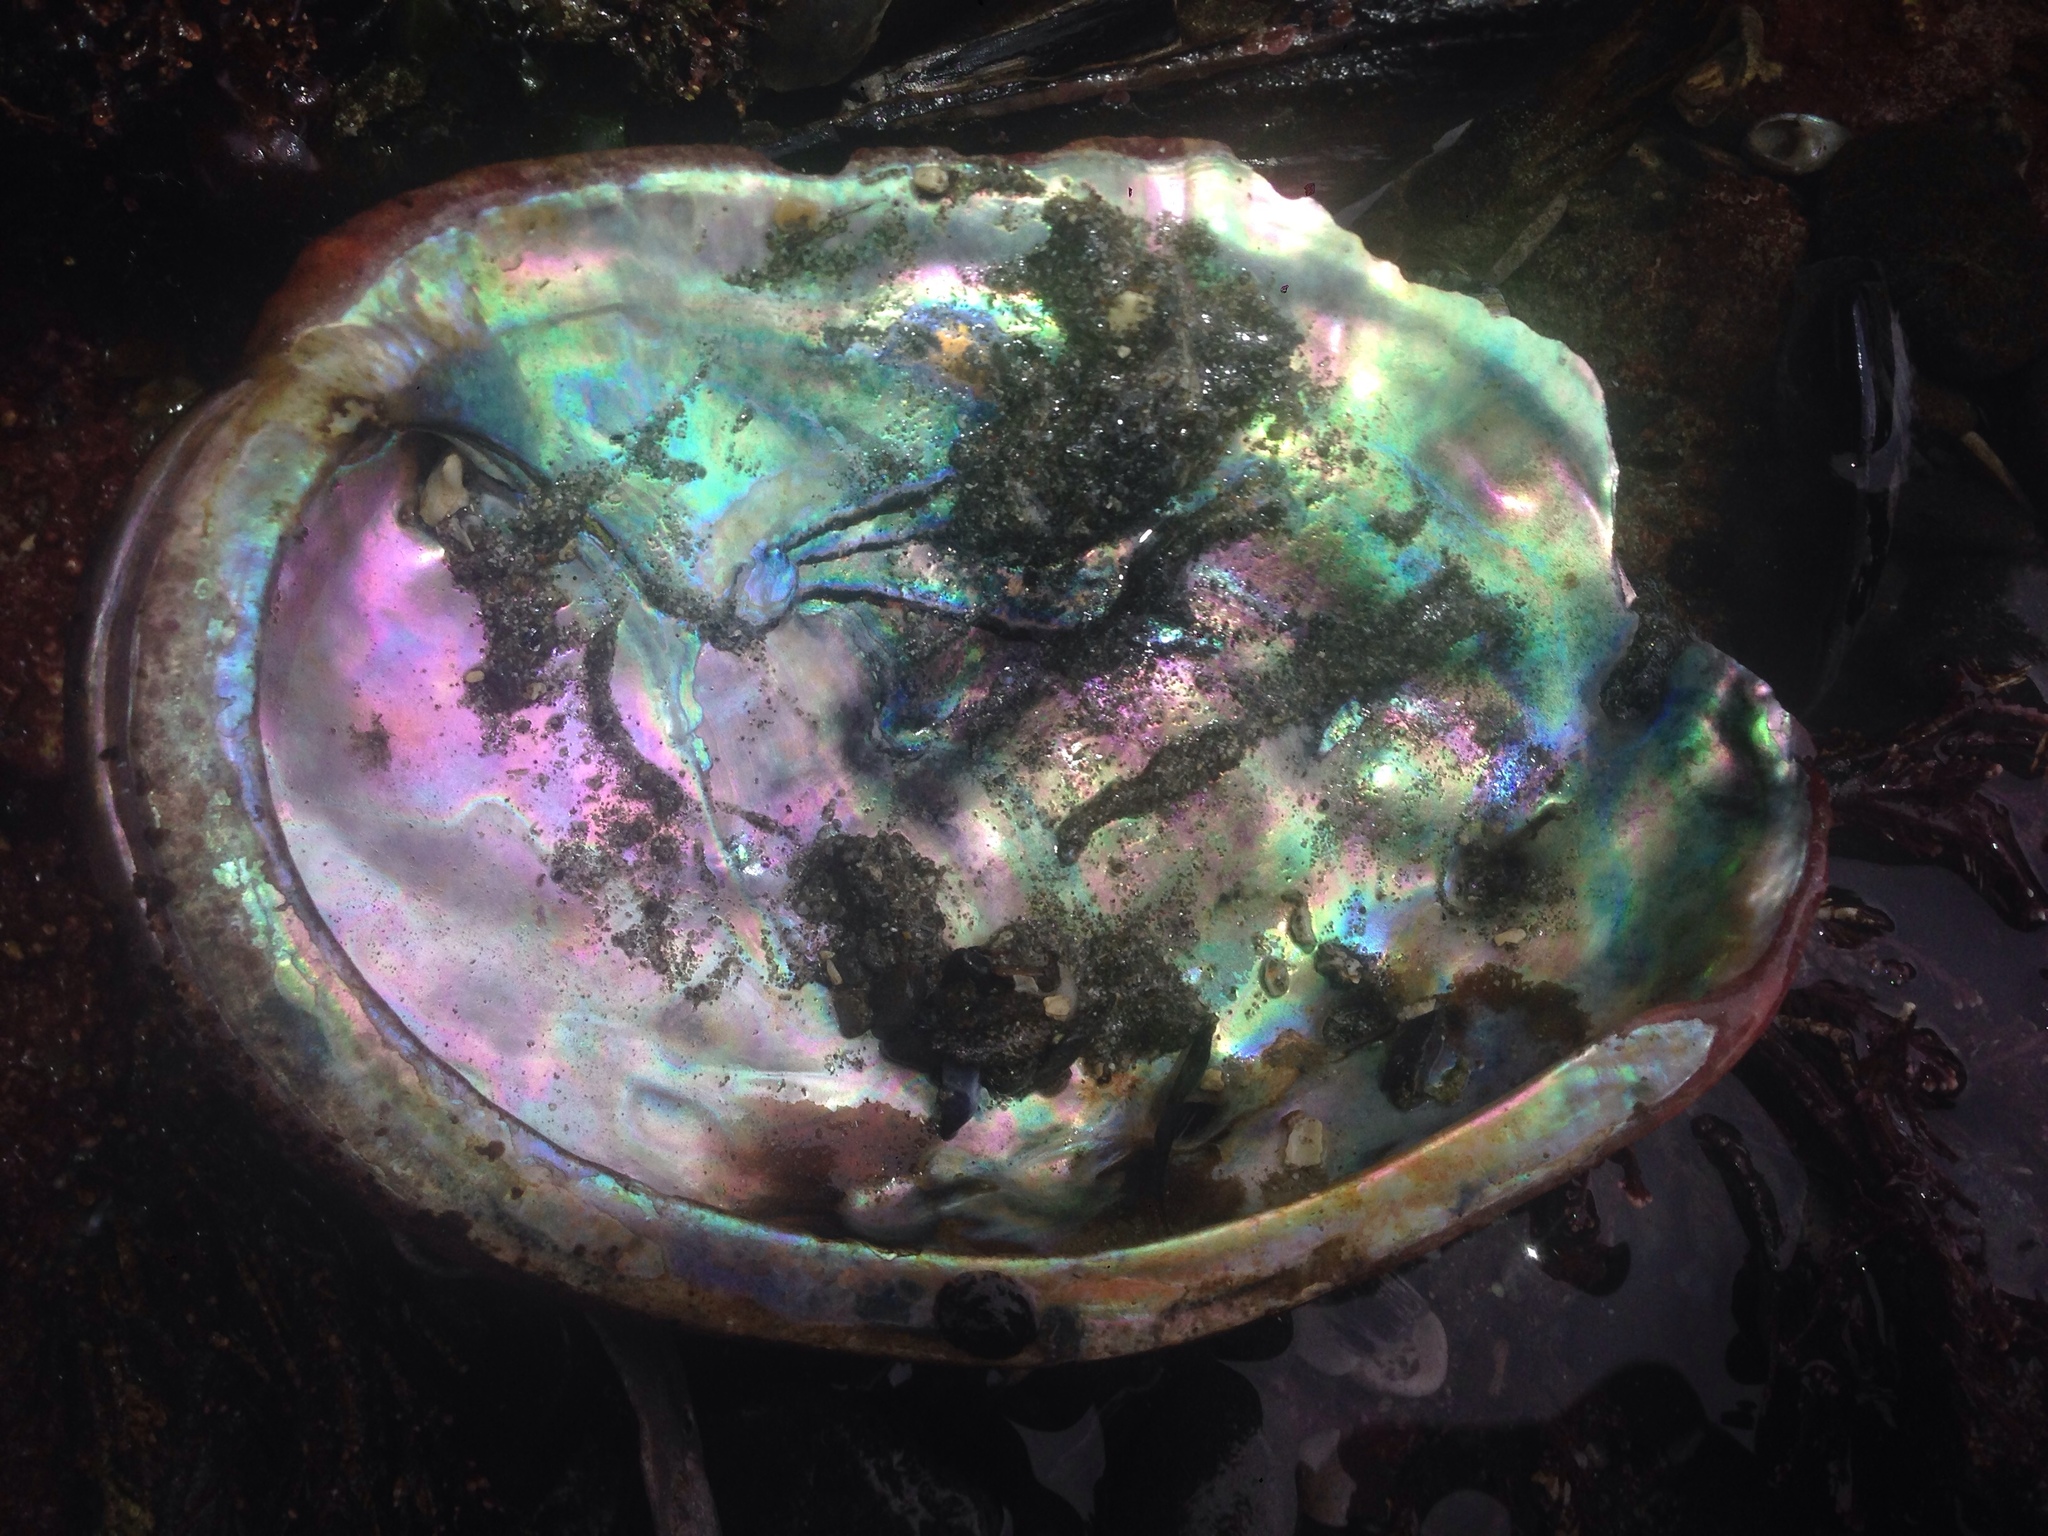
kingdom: Animalia
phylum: Mollusca
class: Gastropoda
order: Lepetellida
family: Haliotidae
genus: Haliotis
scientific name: Haliotis rufescens
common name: Red abalone
